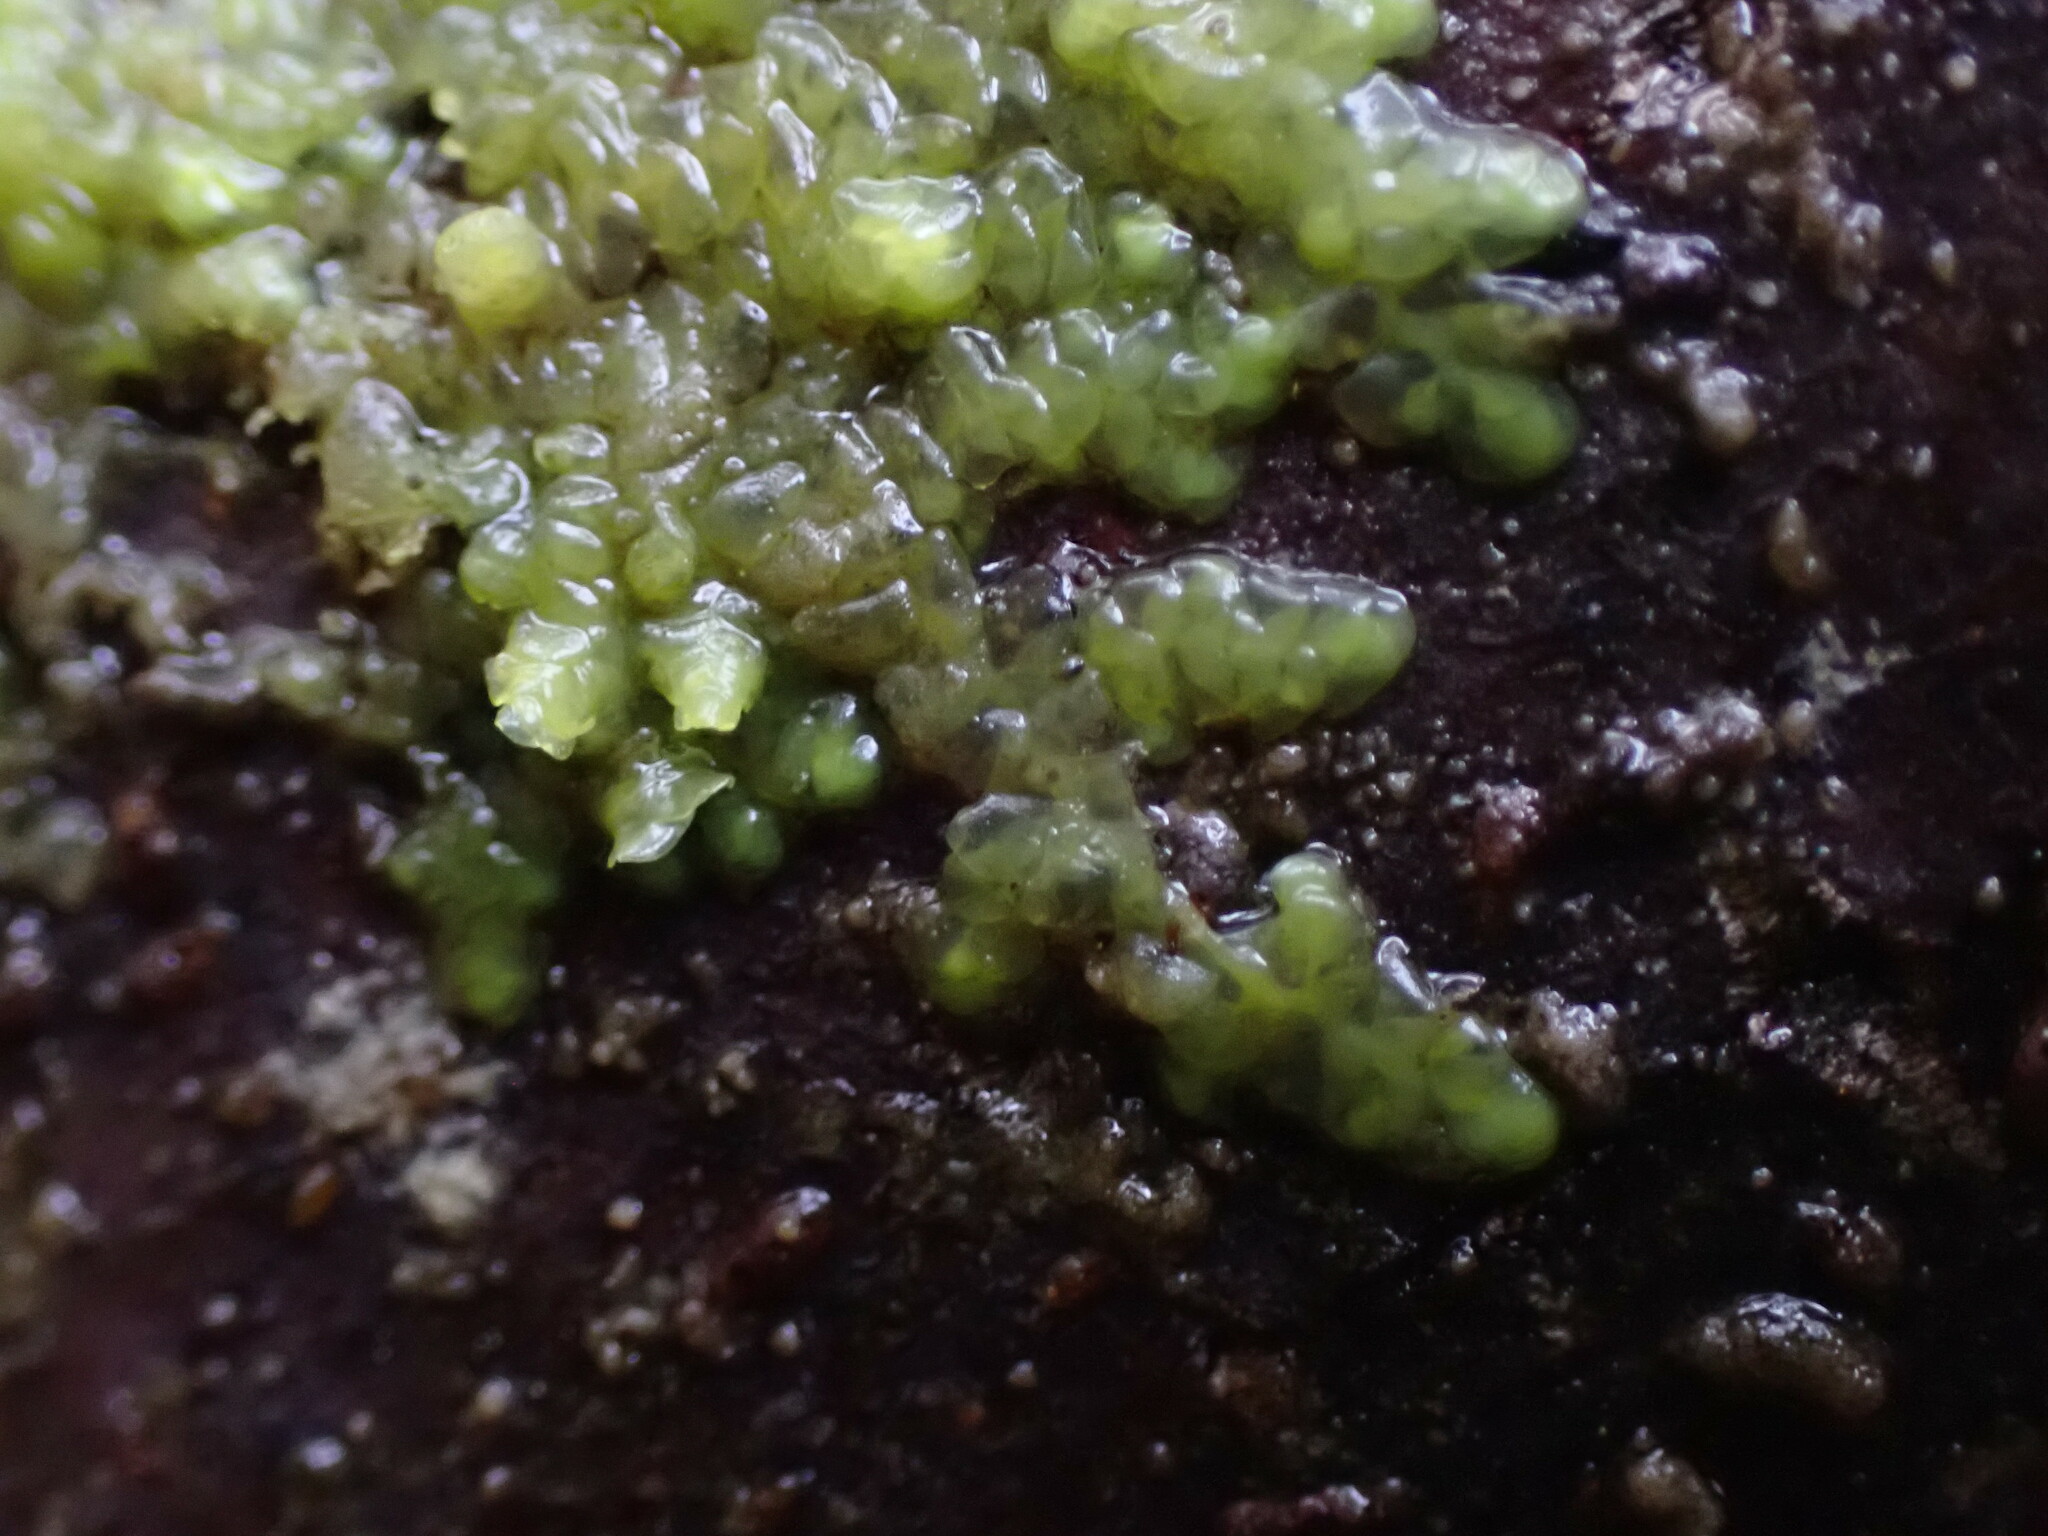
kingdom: Plantae
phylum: Marchantiophyta
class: Jungermanniopsida
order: Porellales
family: Radulaceae
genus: Radula
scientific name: Radula complanata
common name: Flat-leaved scalewort
